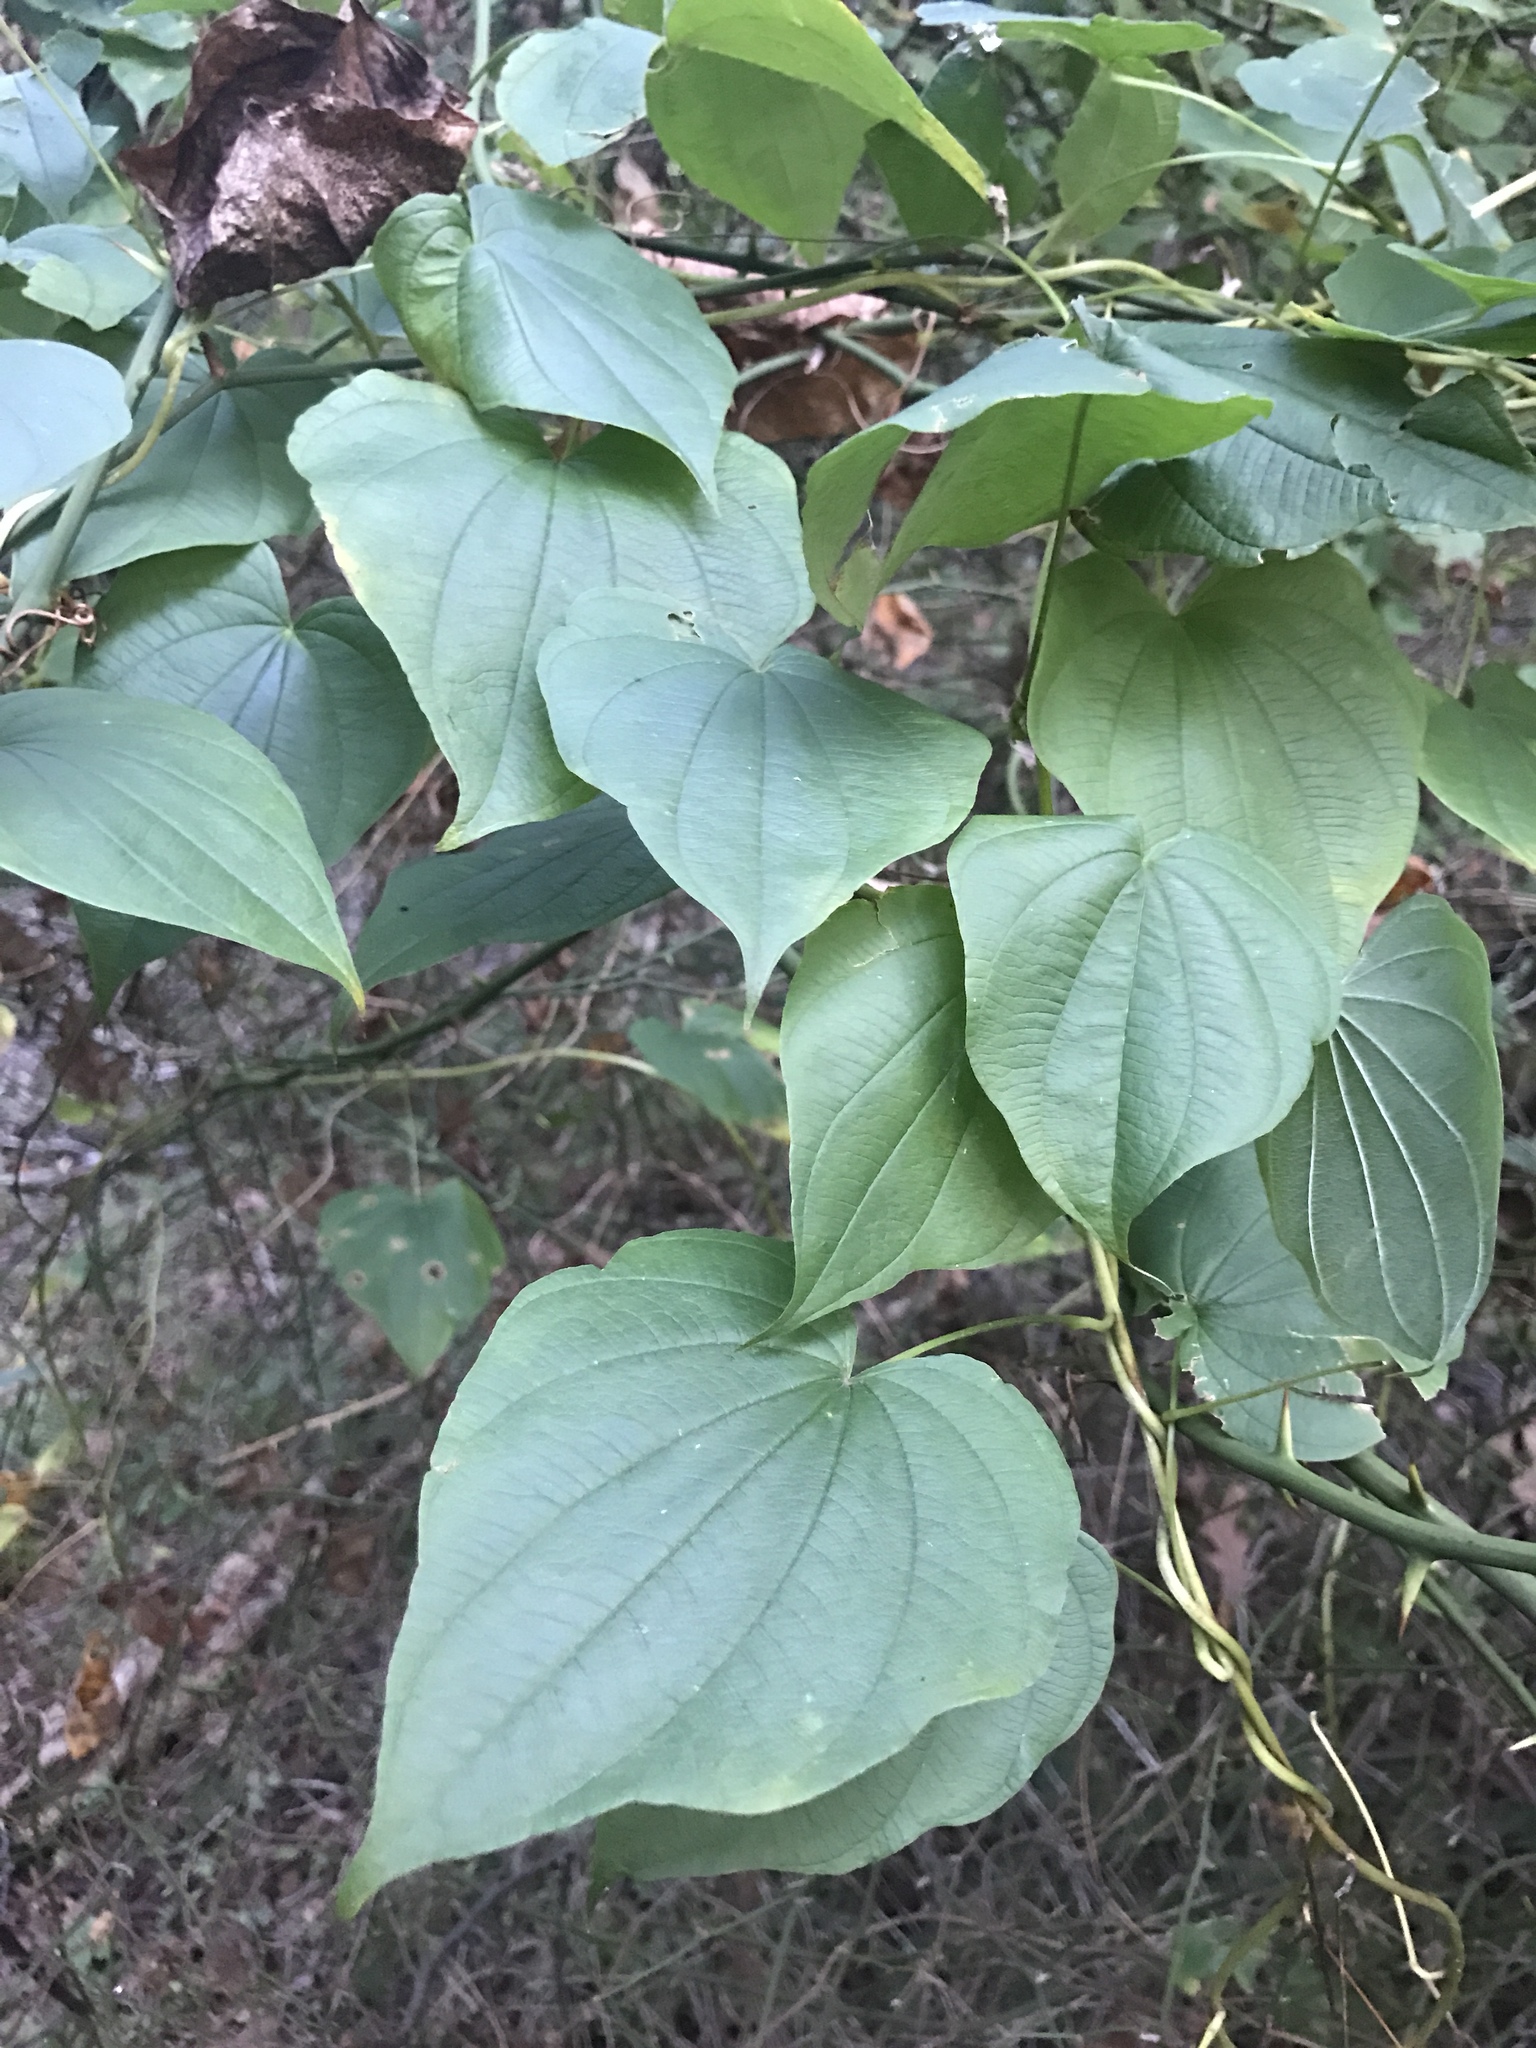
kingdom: Plantae
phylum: Tracheophyta
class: Liliopsida
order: Dioscoreales
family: Dioscoreaceae
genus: Dioscorea
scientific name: Dioscorea villosa
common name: Wild yam
